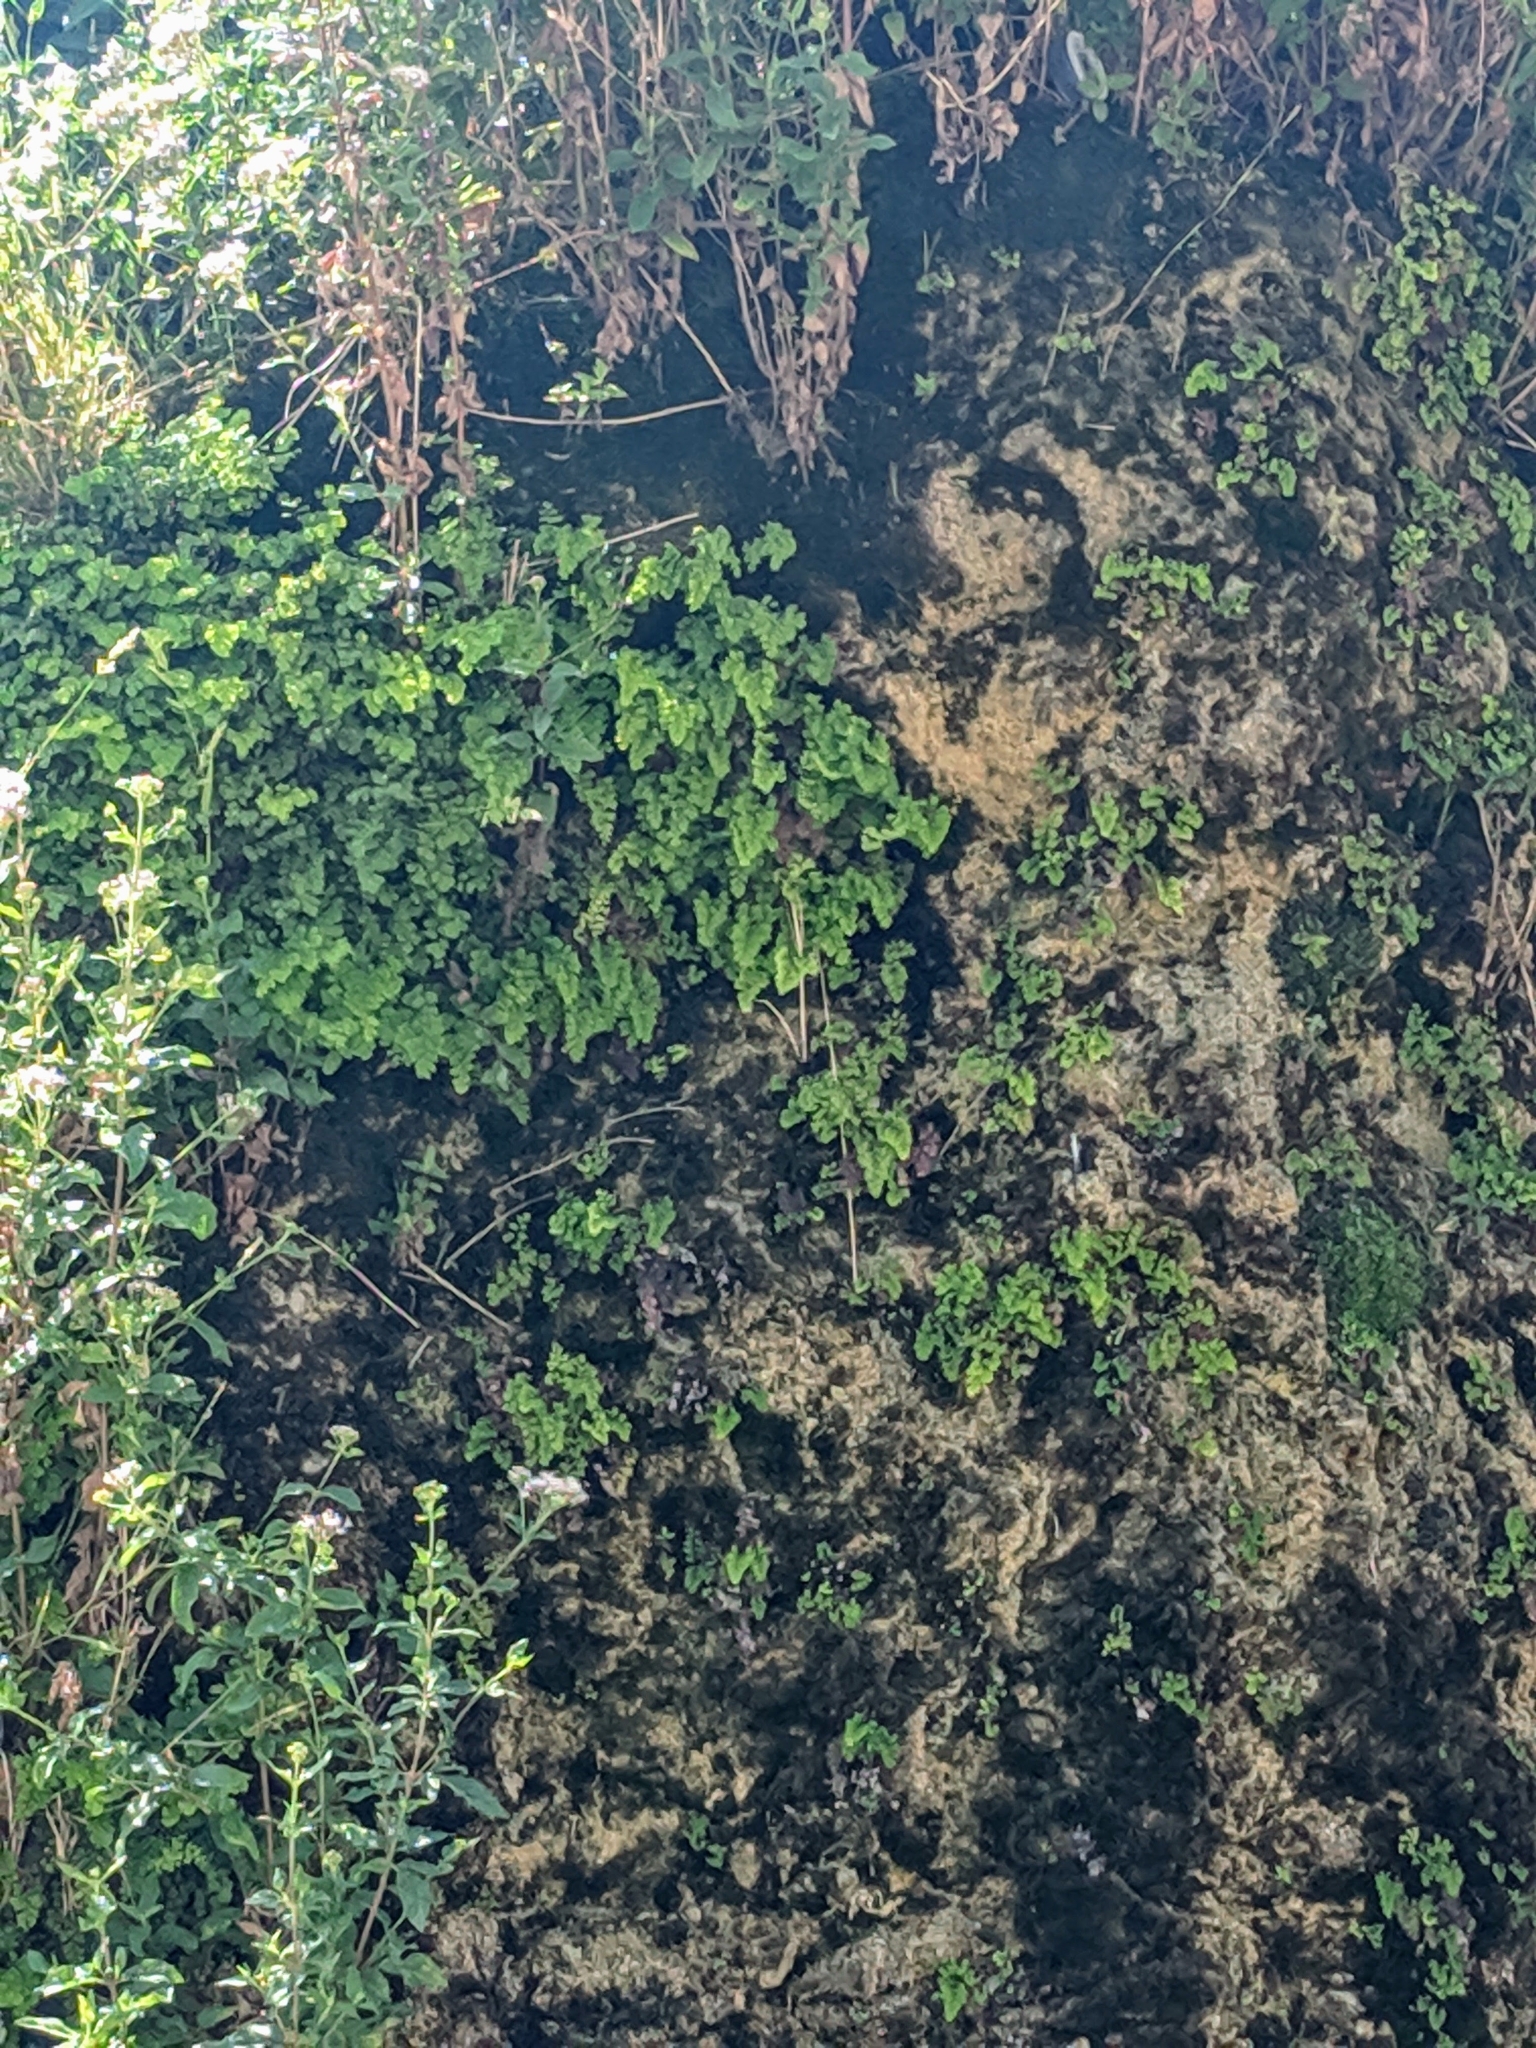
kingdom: Plantae
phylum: Tracheophyta
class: Polypodiopsida
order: Polypodiales
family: Pteridaceae
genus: Adiantum
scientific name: Adiantum capillus-veneris
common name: Maidenhair fern
